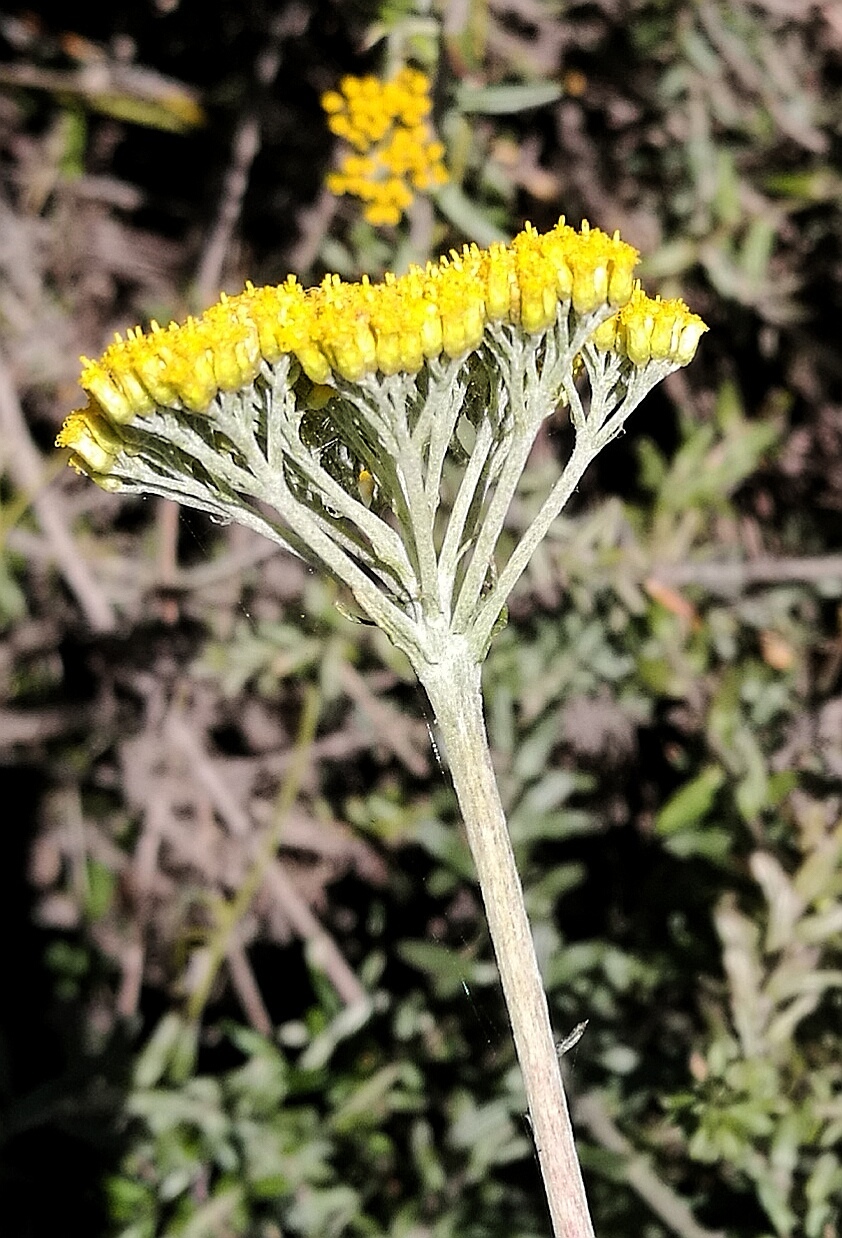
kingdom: Plantae
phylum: Tracheophyta
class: Magnoliopsida
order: Asterales
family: Asteraceae
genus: Helichrysum
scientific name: Helichrysum cymosum
